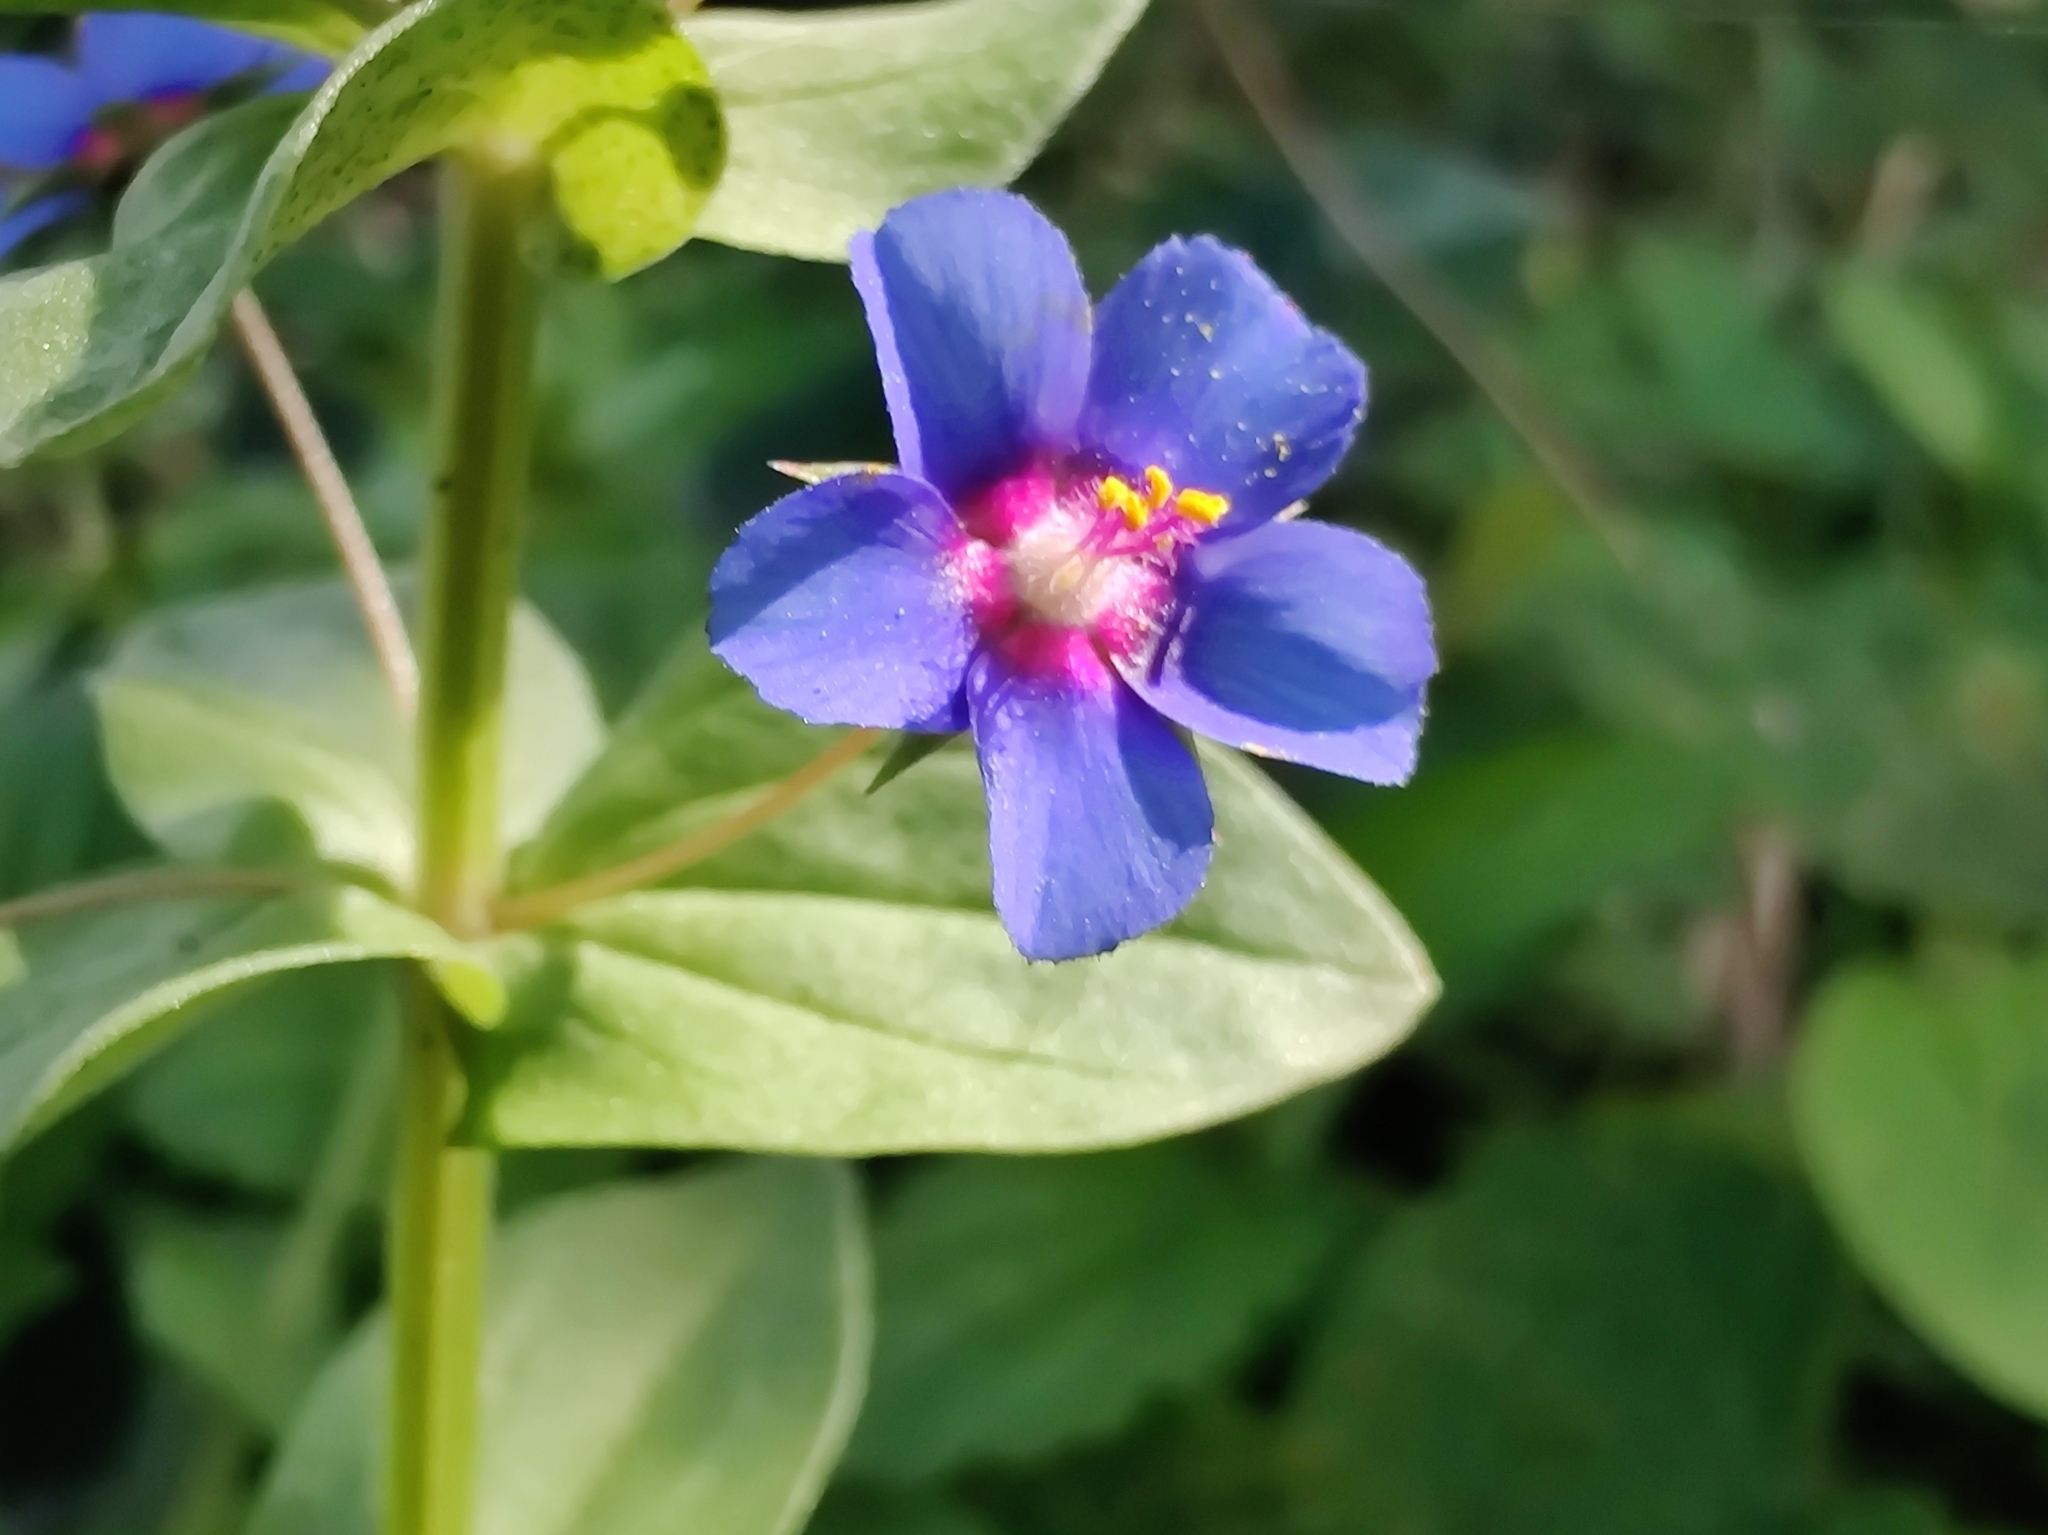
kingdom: Plantae
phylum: Tracheophyta
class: Magnoliopsida
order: Ericales
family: Primulaceae
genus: Lysimachia
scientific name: Lysimachia loeflingii
